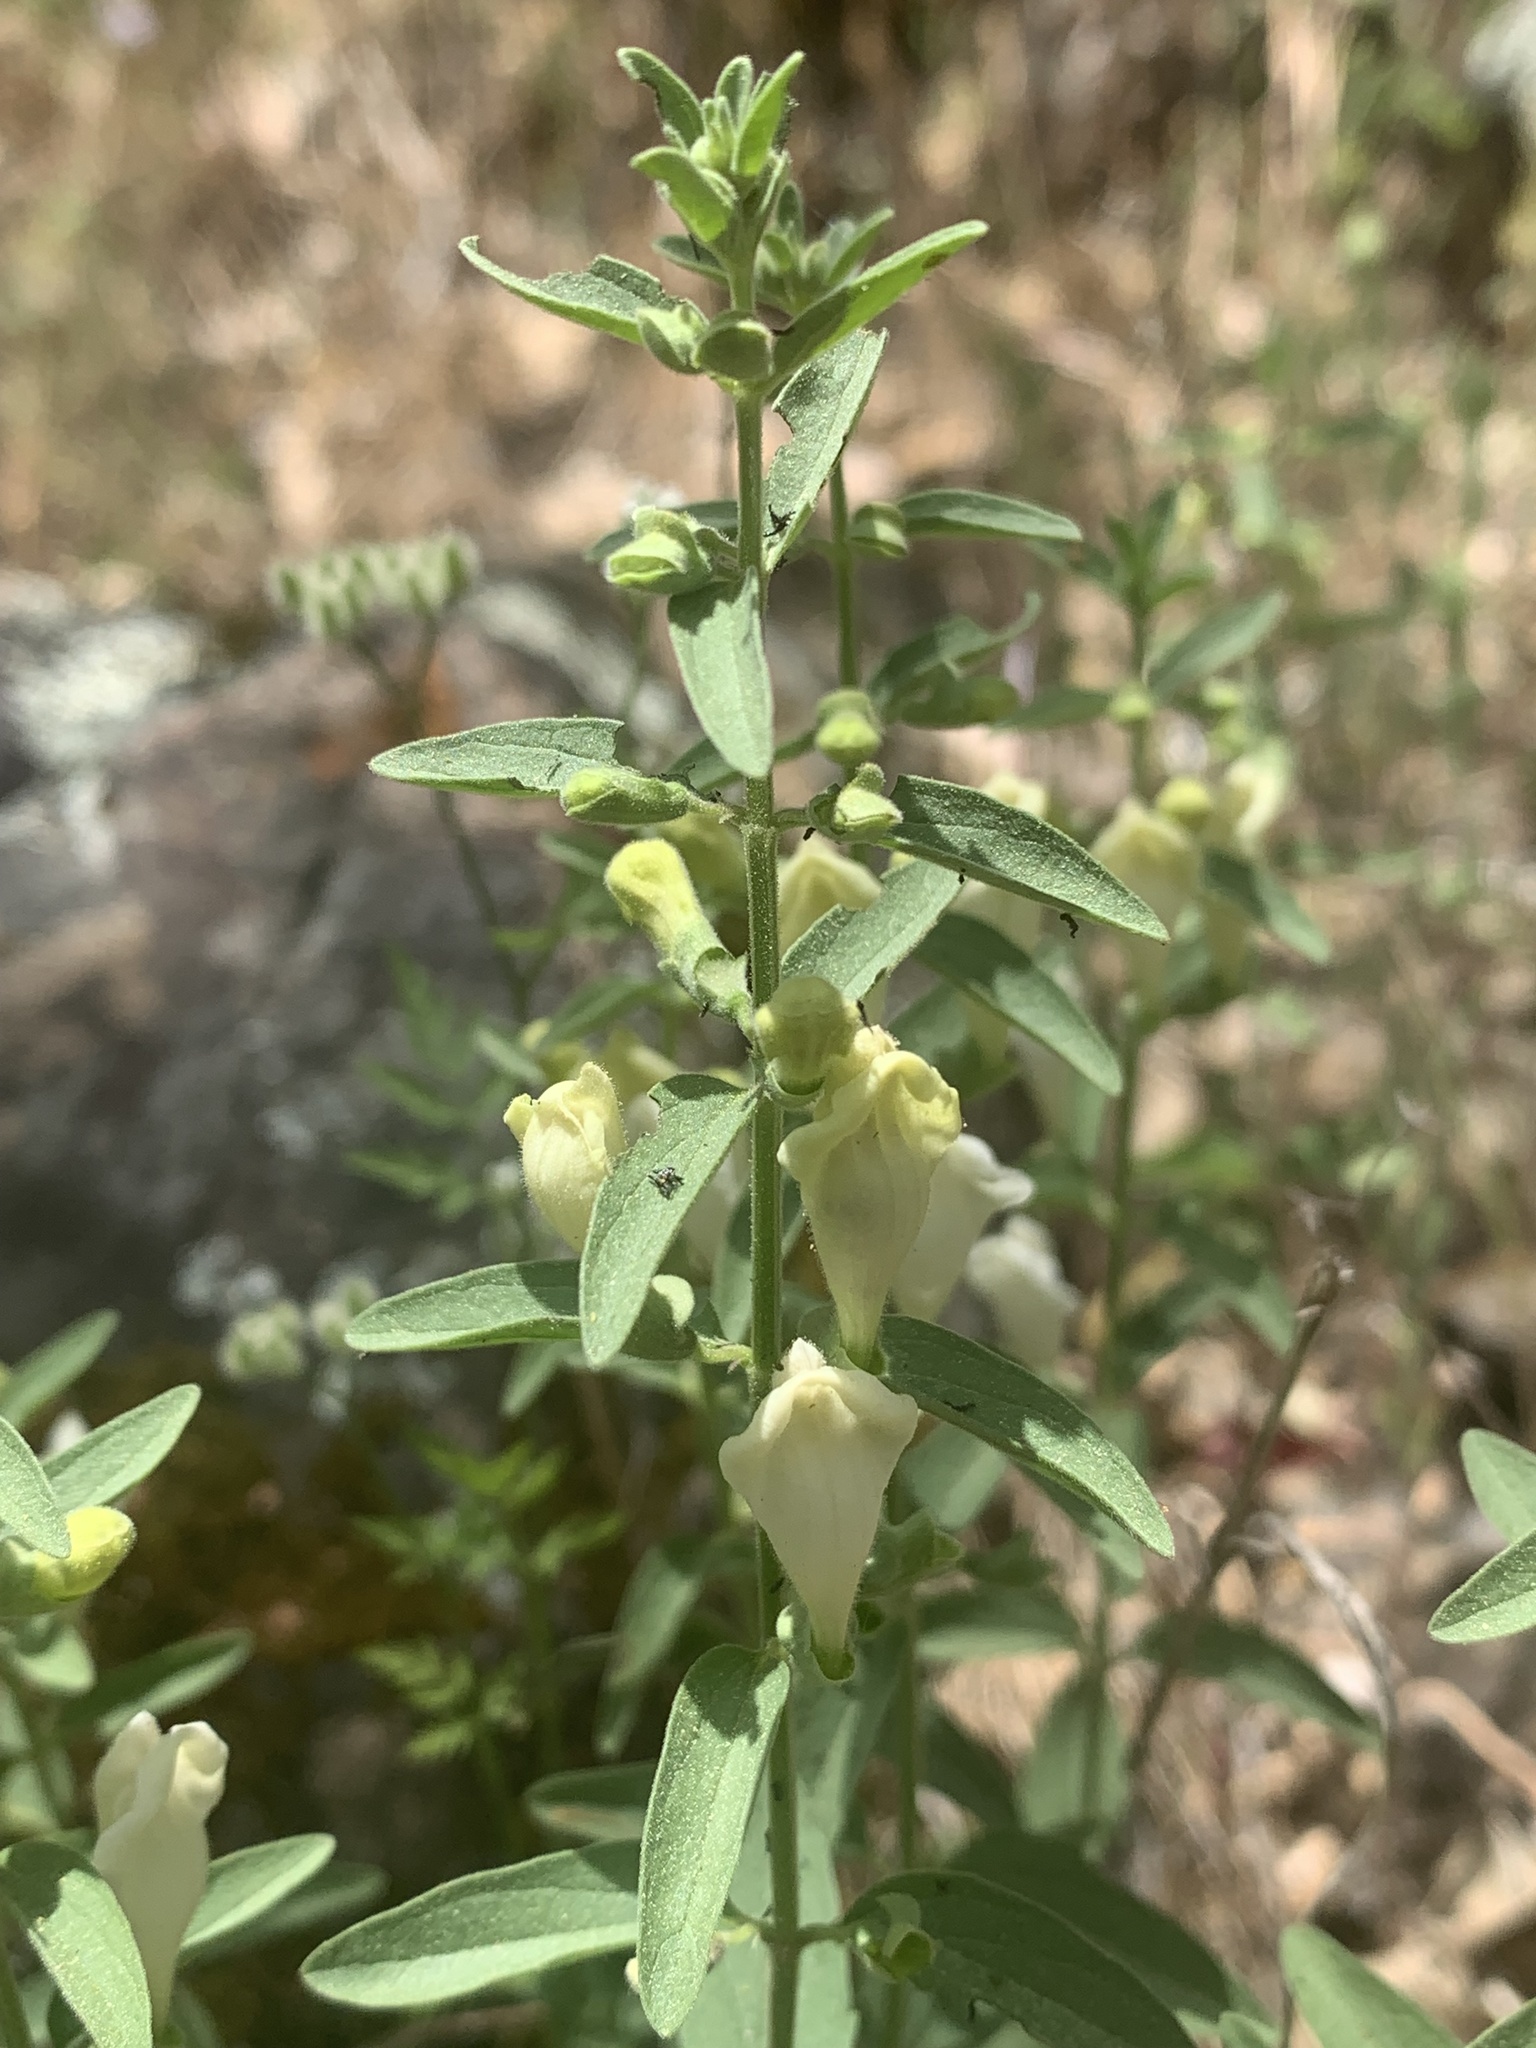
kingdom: Plantae
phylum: Tracheophyta
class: Magnoliopsida
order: Lamiales
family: Lamiaceae
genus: Scutellaria
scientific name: Scutellaria californica
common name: California scullcap
